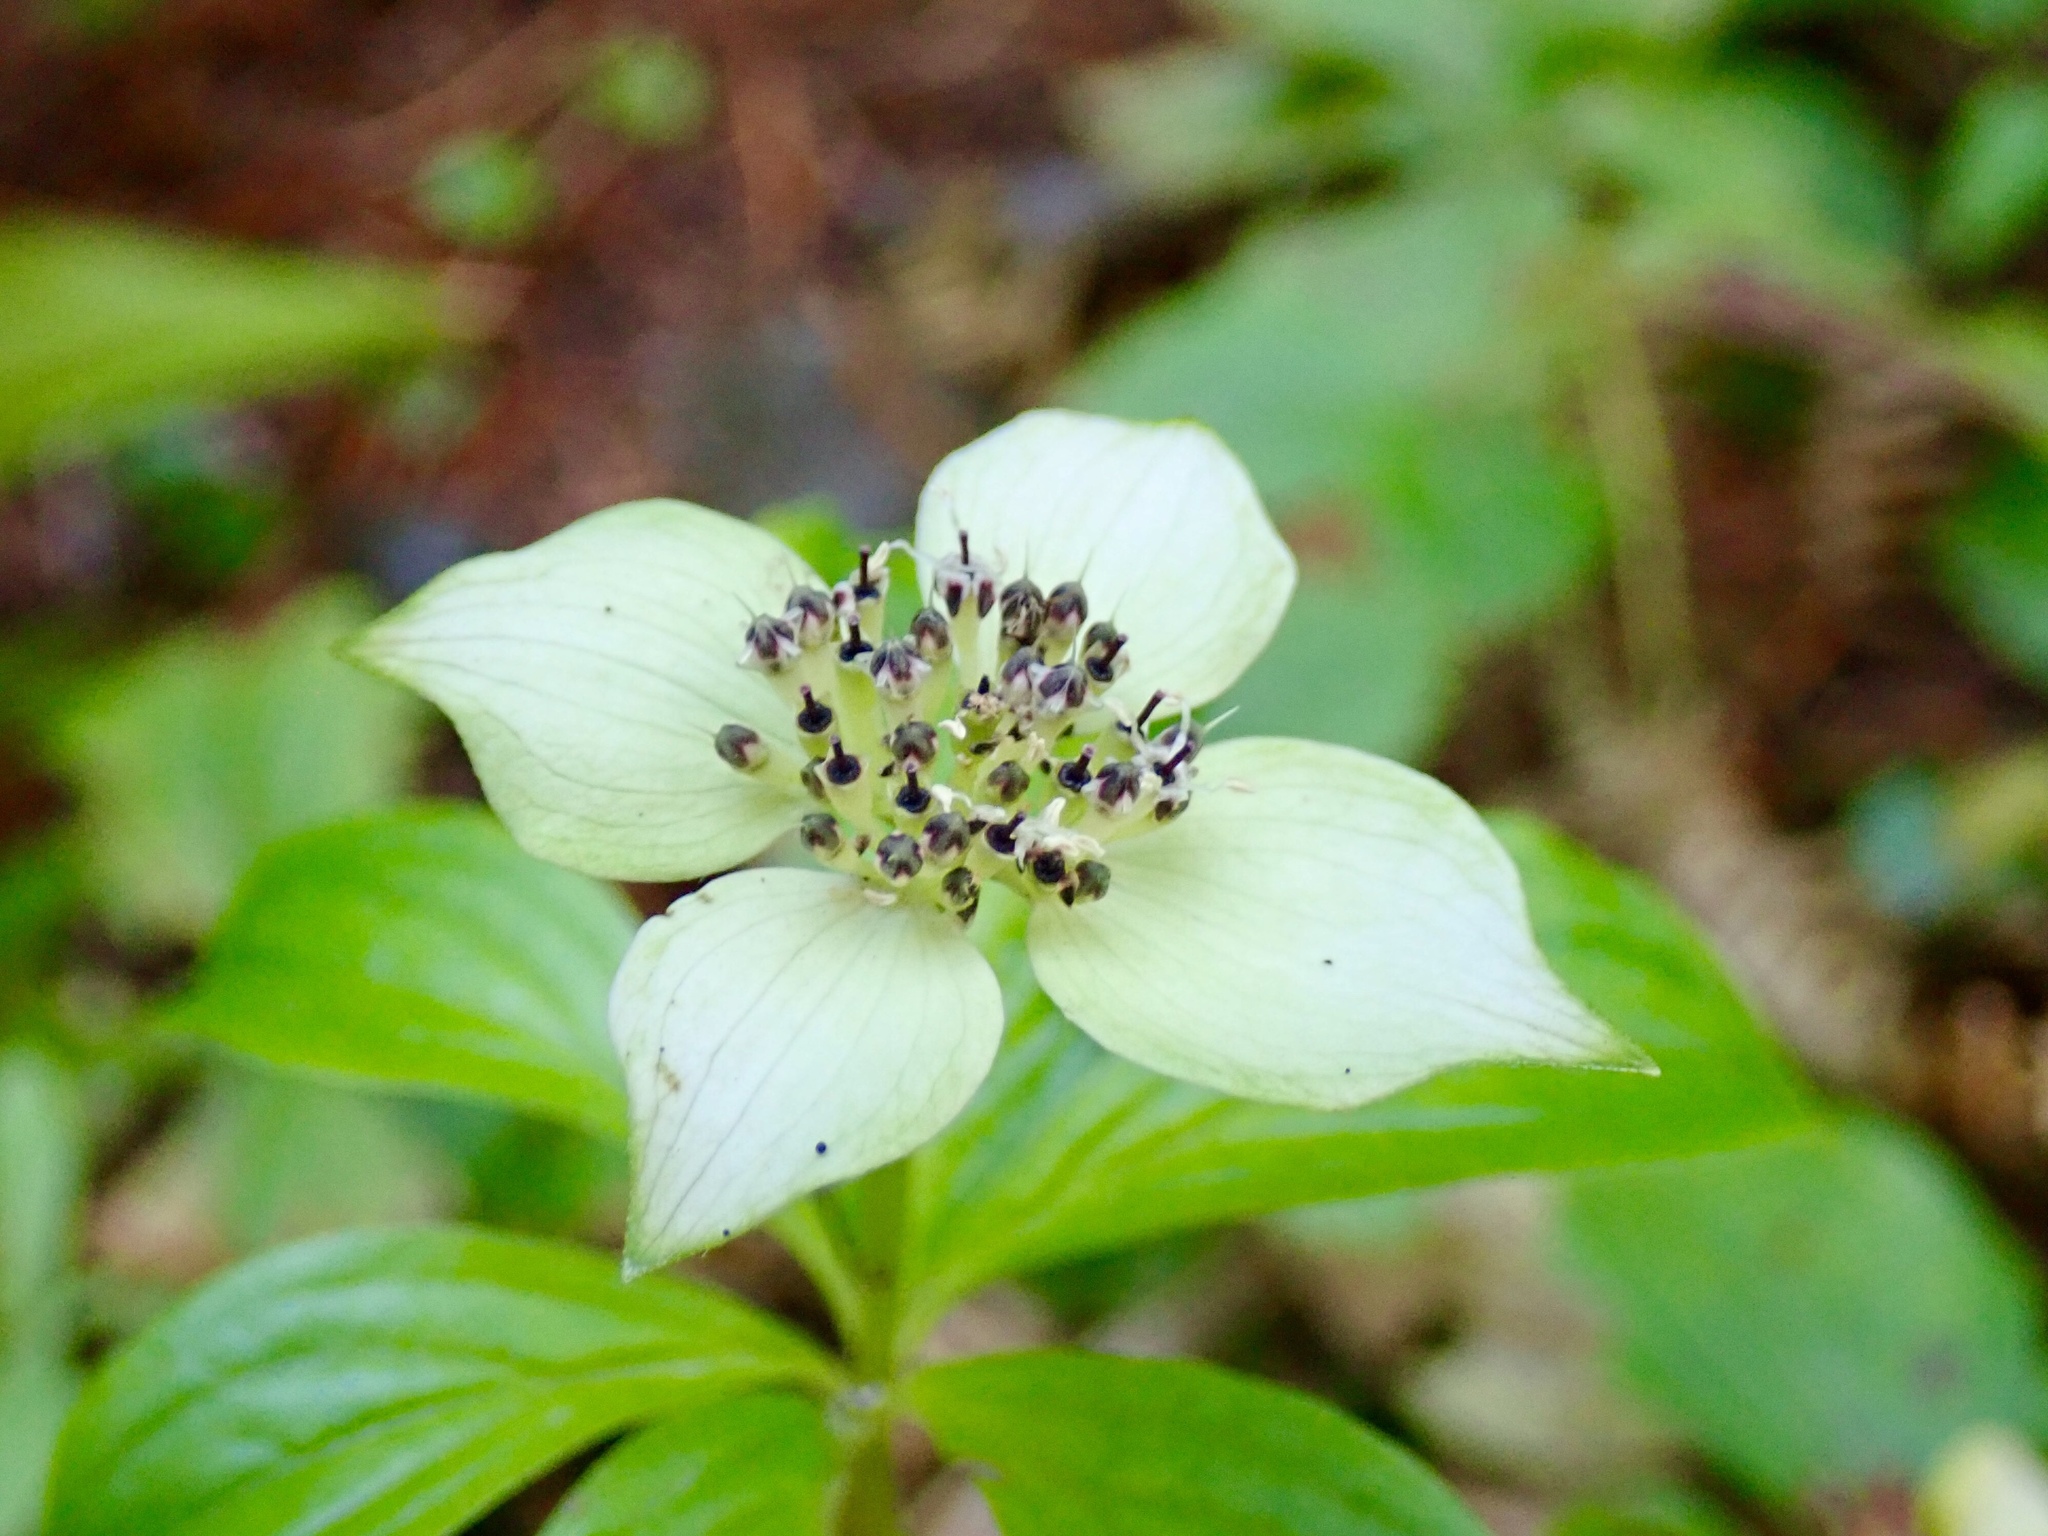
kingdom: Plantae
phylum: Tracheophyta
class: Magnoliopsida
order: Cornales
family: Cornaceae
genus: Cornus
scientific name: Cornus unalaschkensis
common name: Alaska bunchberry
